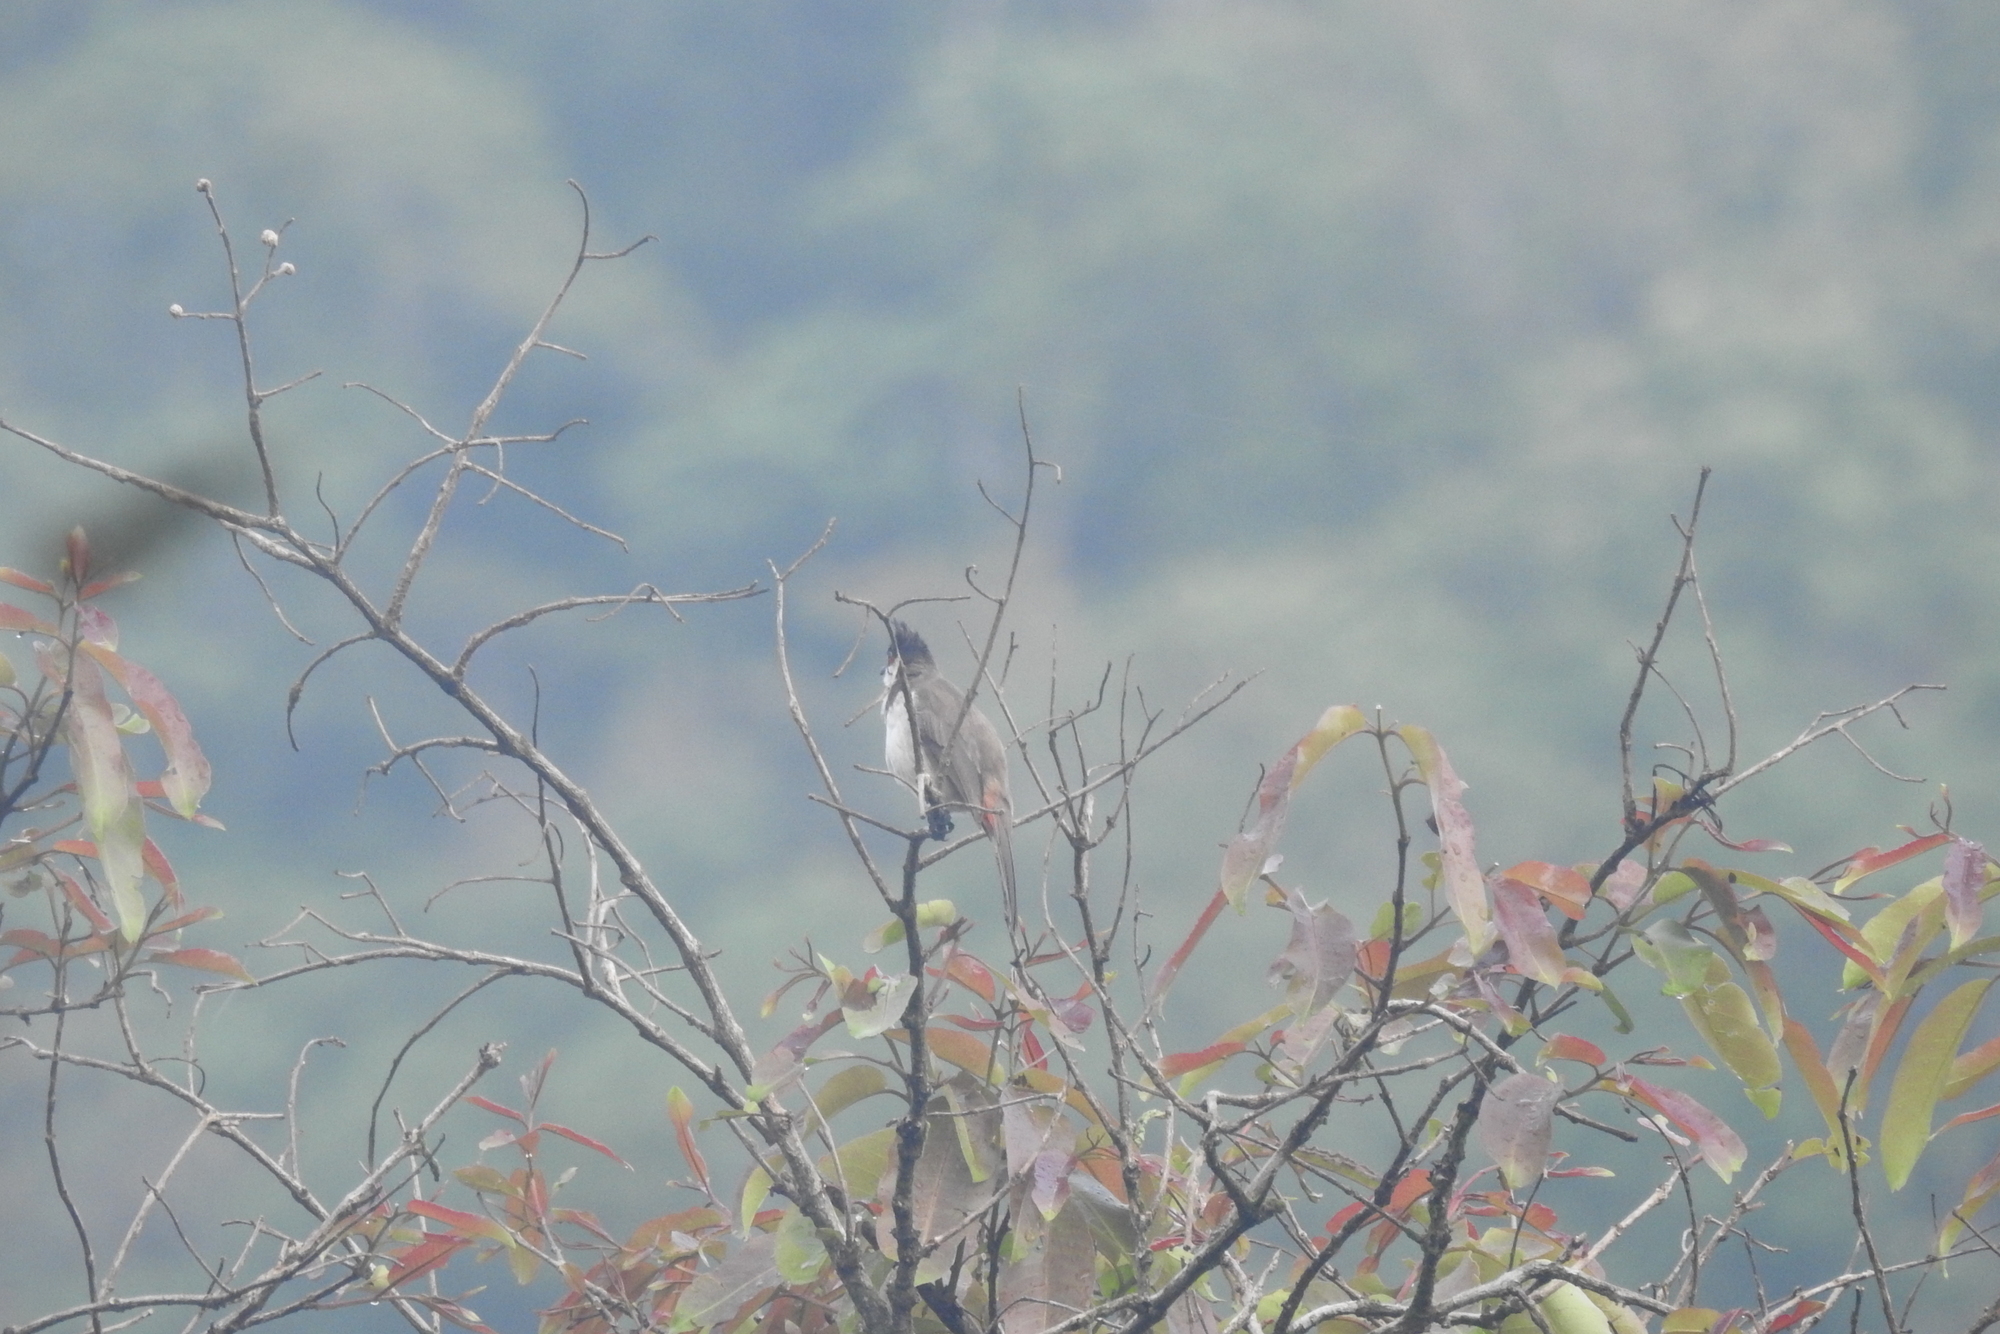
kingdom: Animalia
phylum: Chordata
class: Aves
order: Passeriformes
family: Pycnonotidae
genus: Pycnonotus
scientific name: Pycnonotus jocosus
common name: Red-whiskered bulbul
